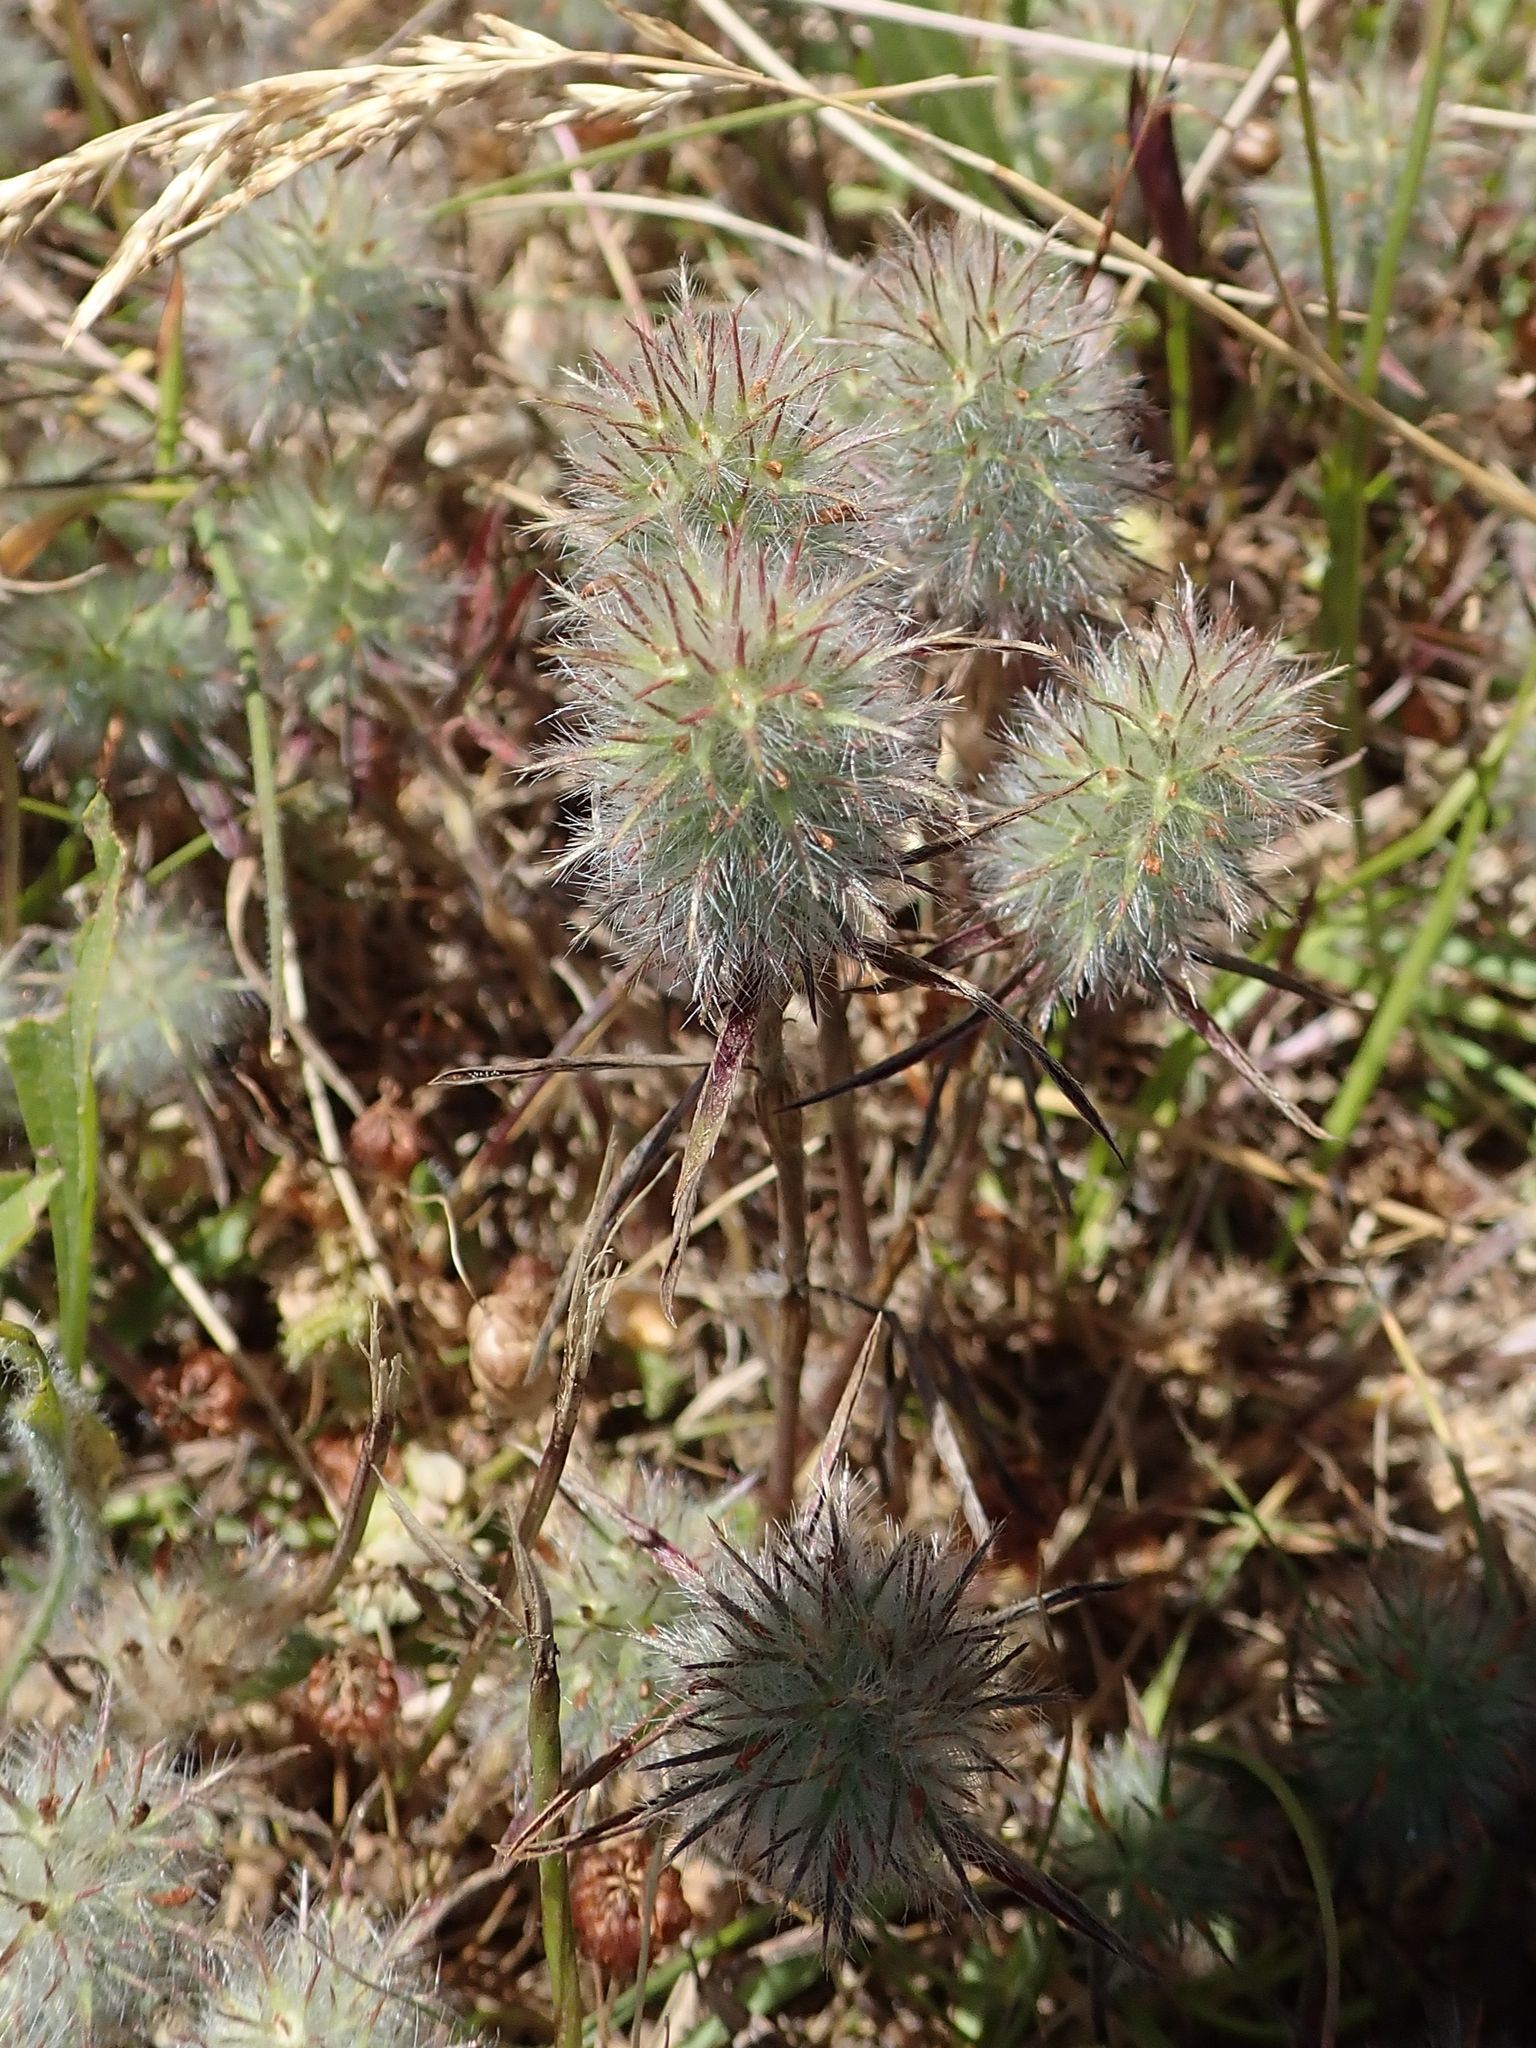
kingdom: Plantae
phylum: Tracheophyta
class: Magnoliopsida
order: Fabales
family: Fabaceae
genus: Trifolium
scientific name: Trifolium angustifolium
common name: Narrow clover
